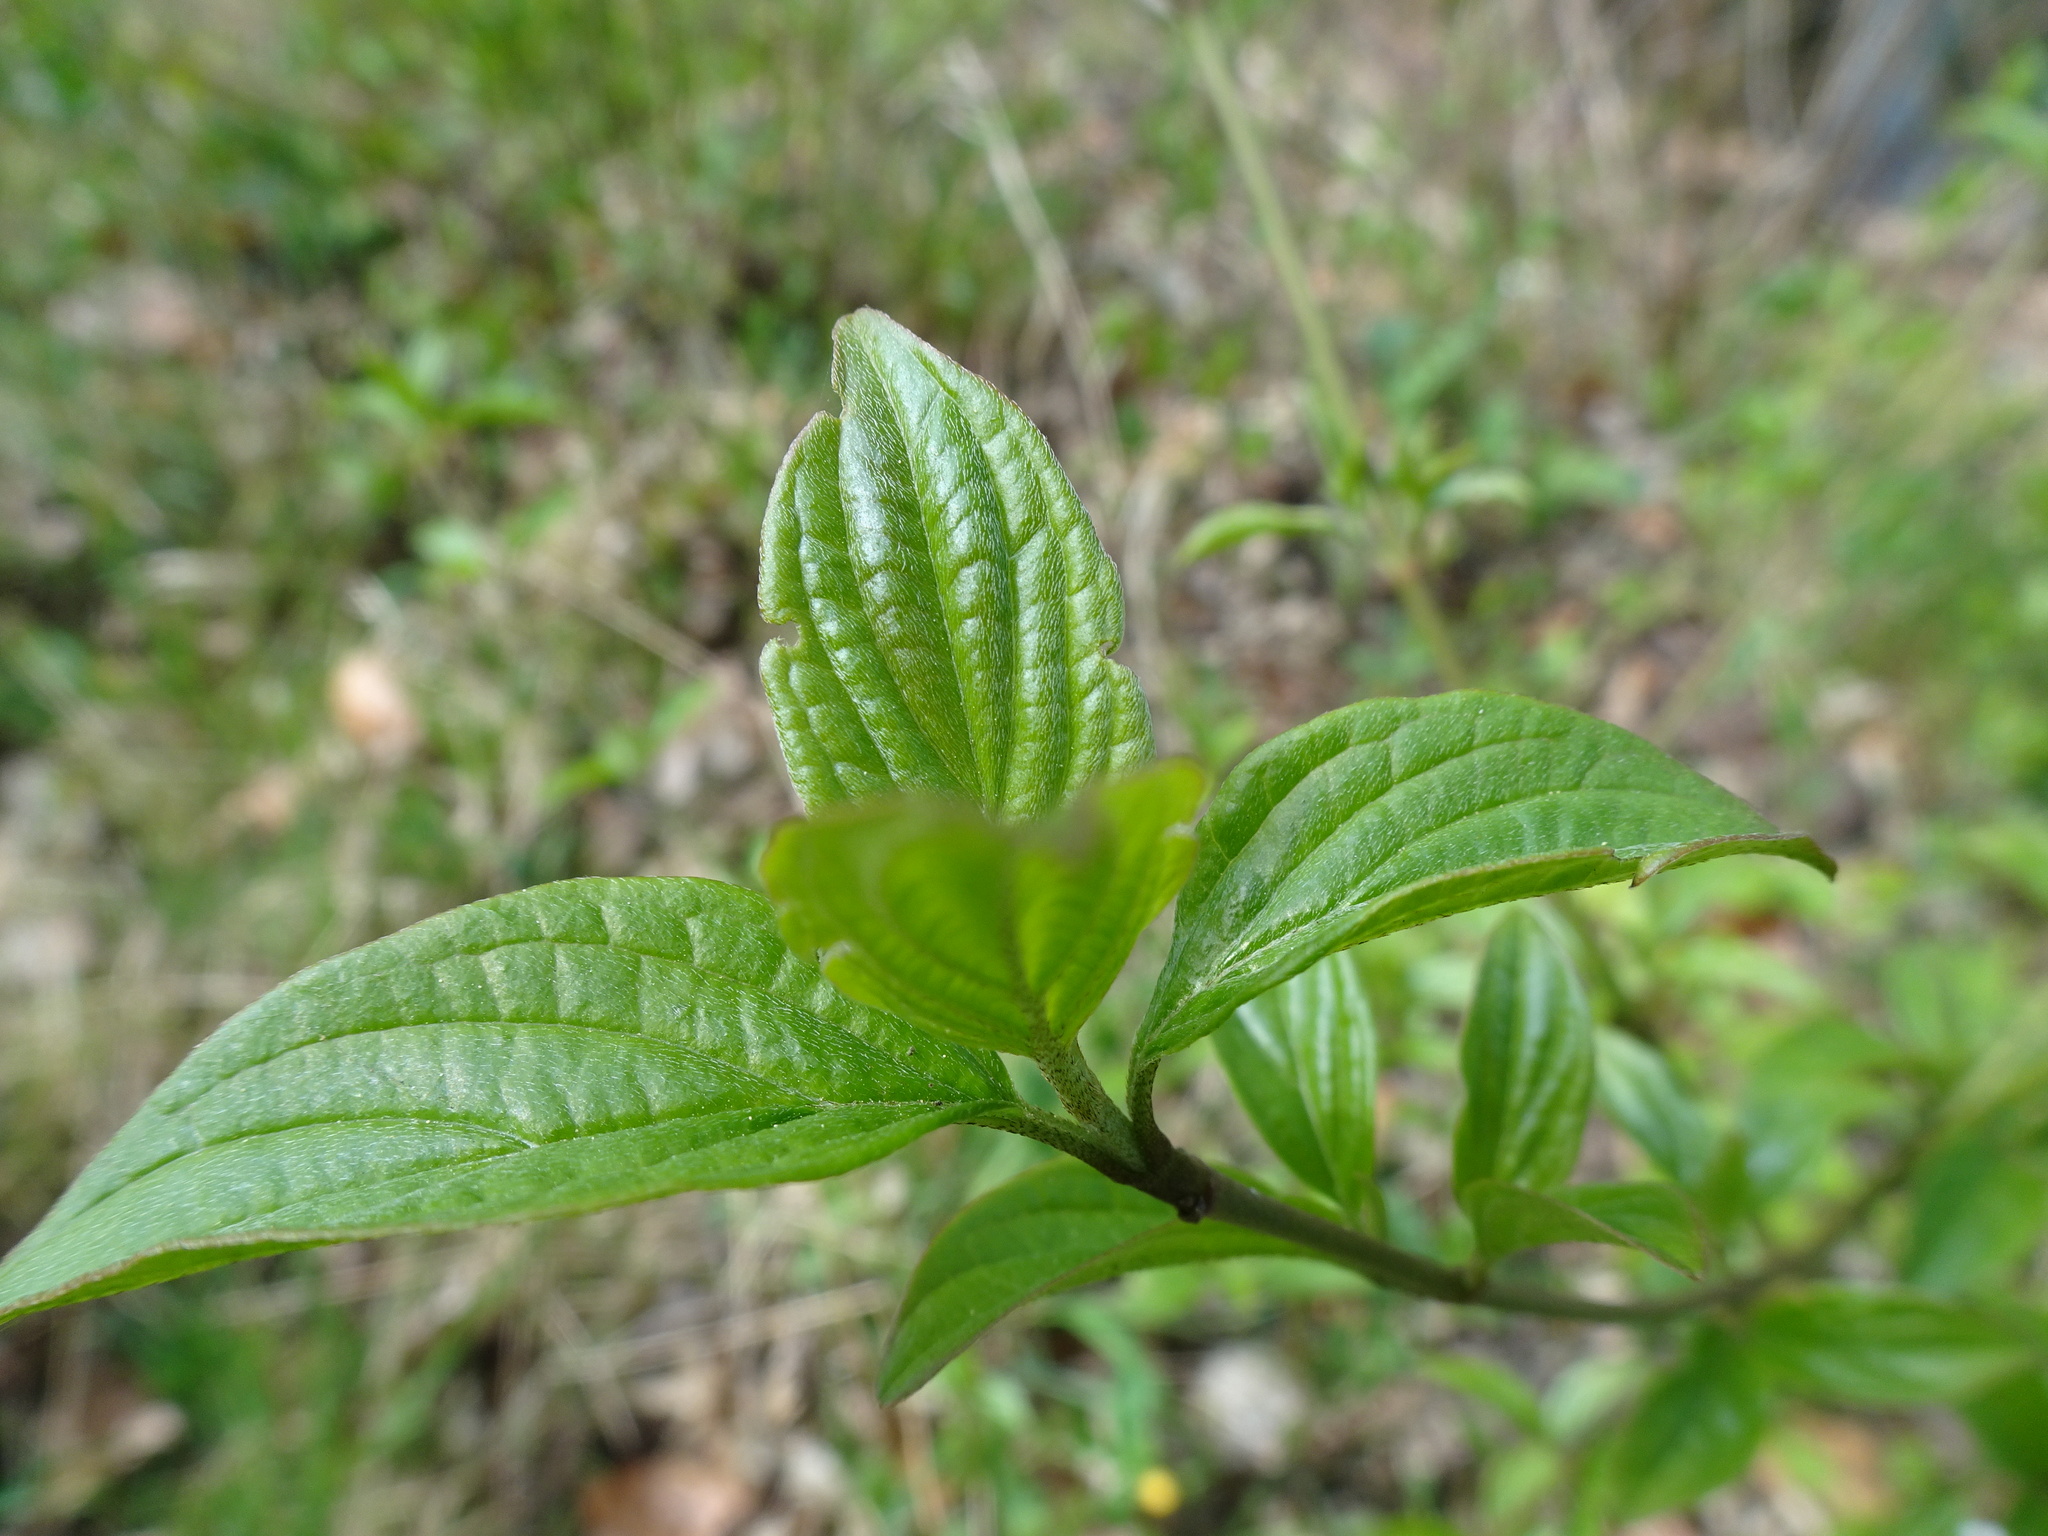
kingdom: Plantae
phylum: Tracheophyta
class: Magnoliopsida
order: Cornales
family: Cornaceae
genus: Cornus
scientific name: Cornus sanguinea
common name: Dogwood
